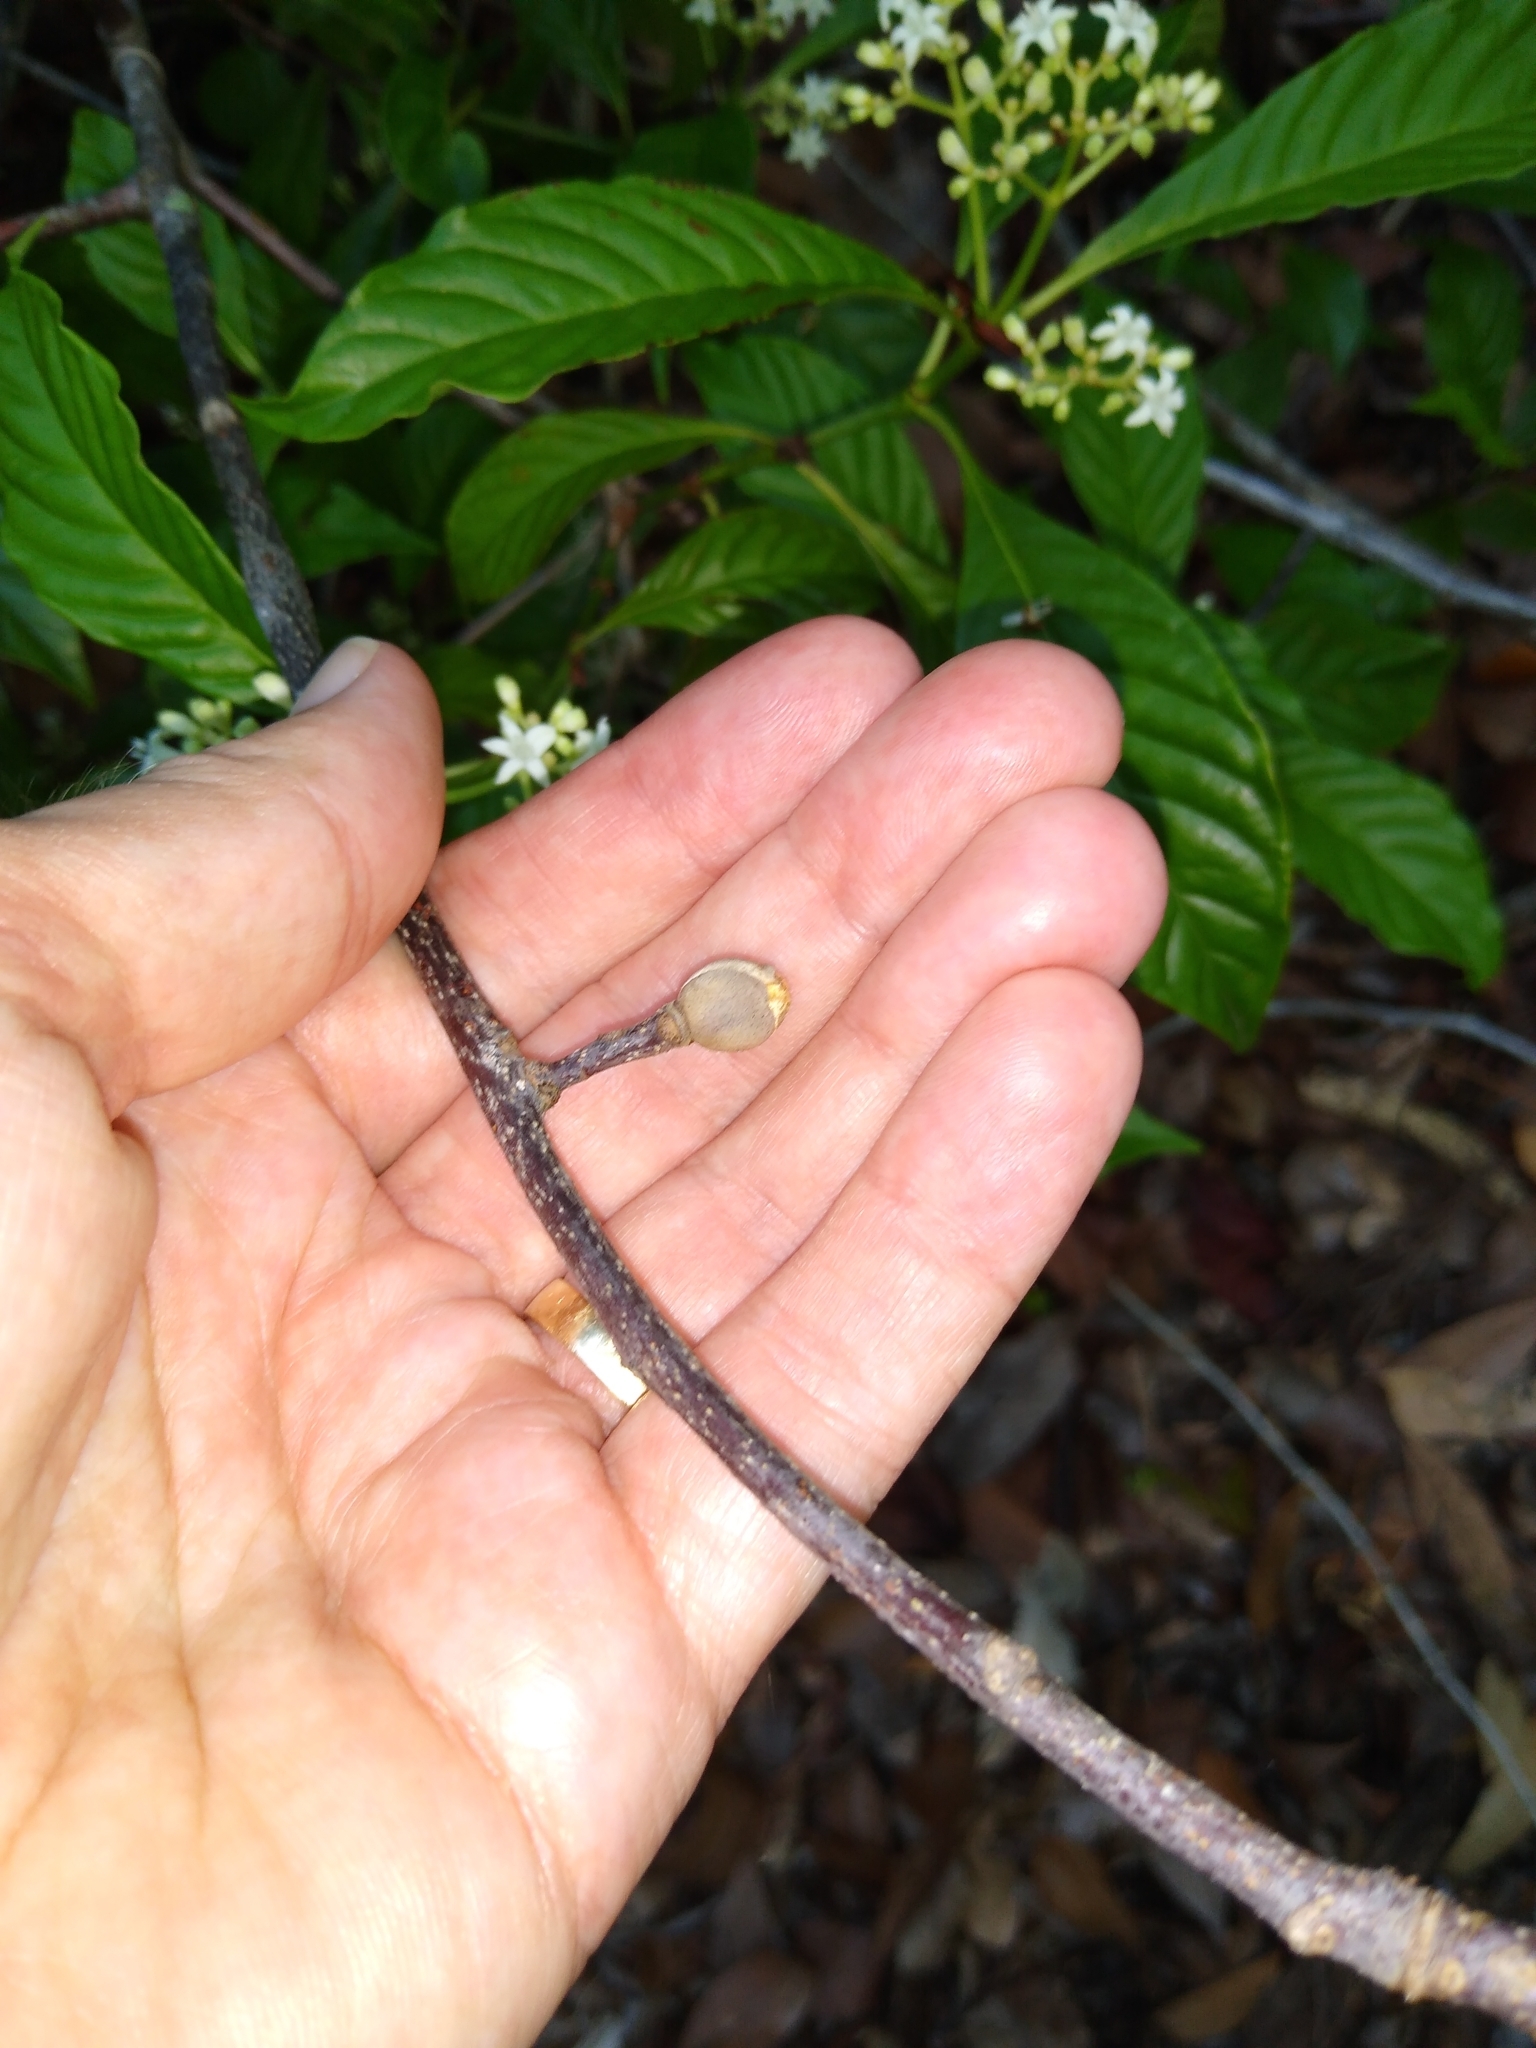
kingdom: Plantae
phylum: Tracheophyta
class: Magnoliopsida
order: Fagales
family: Juglandaceae
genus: Carya
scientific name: Carya glabra
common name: Pignut hickory
